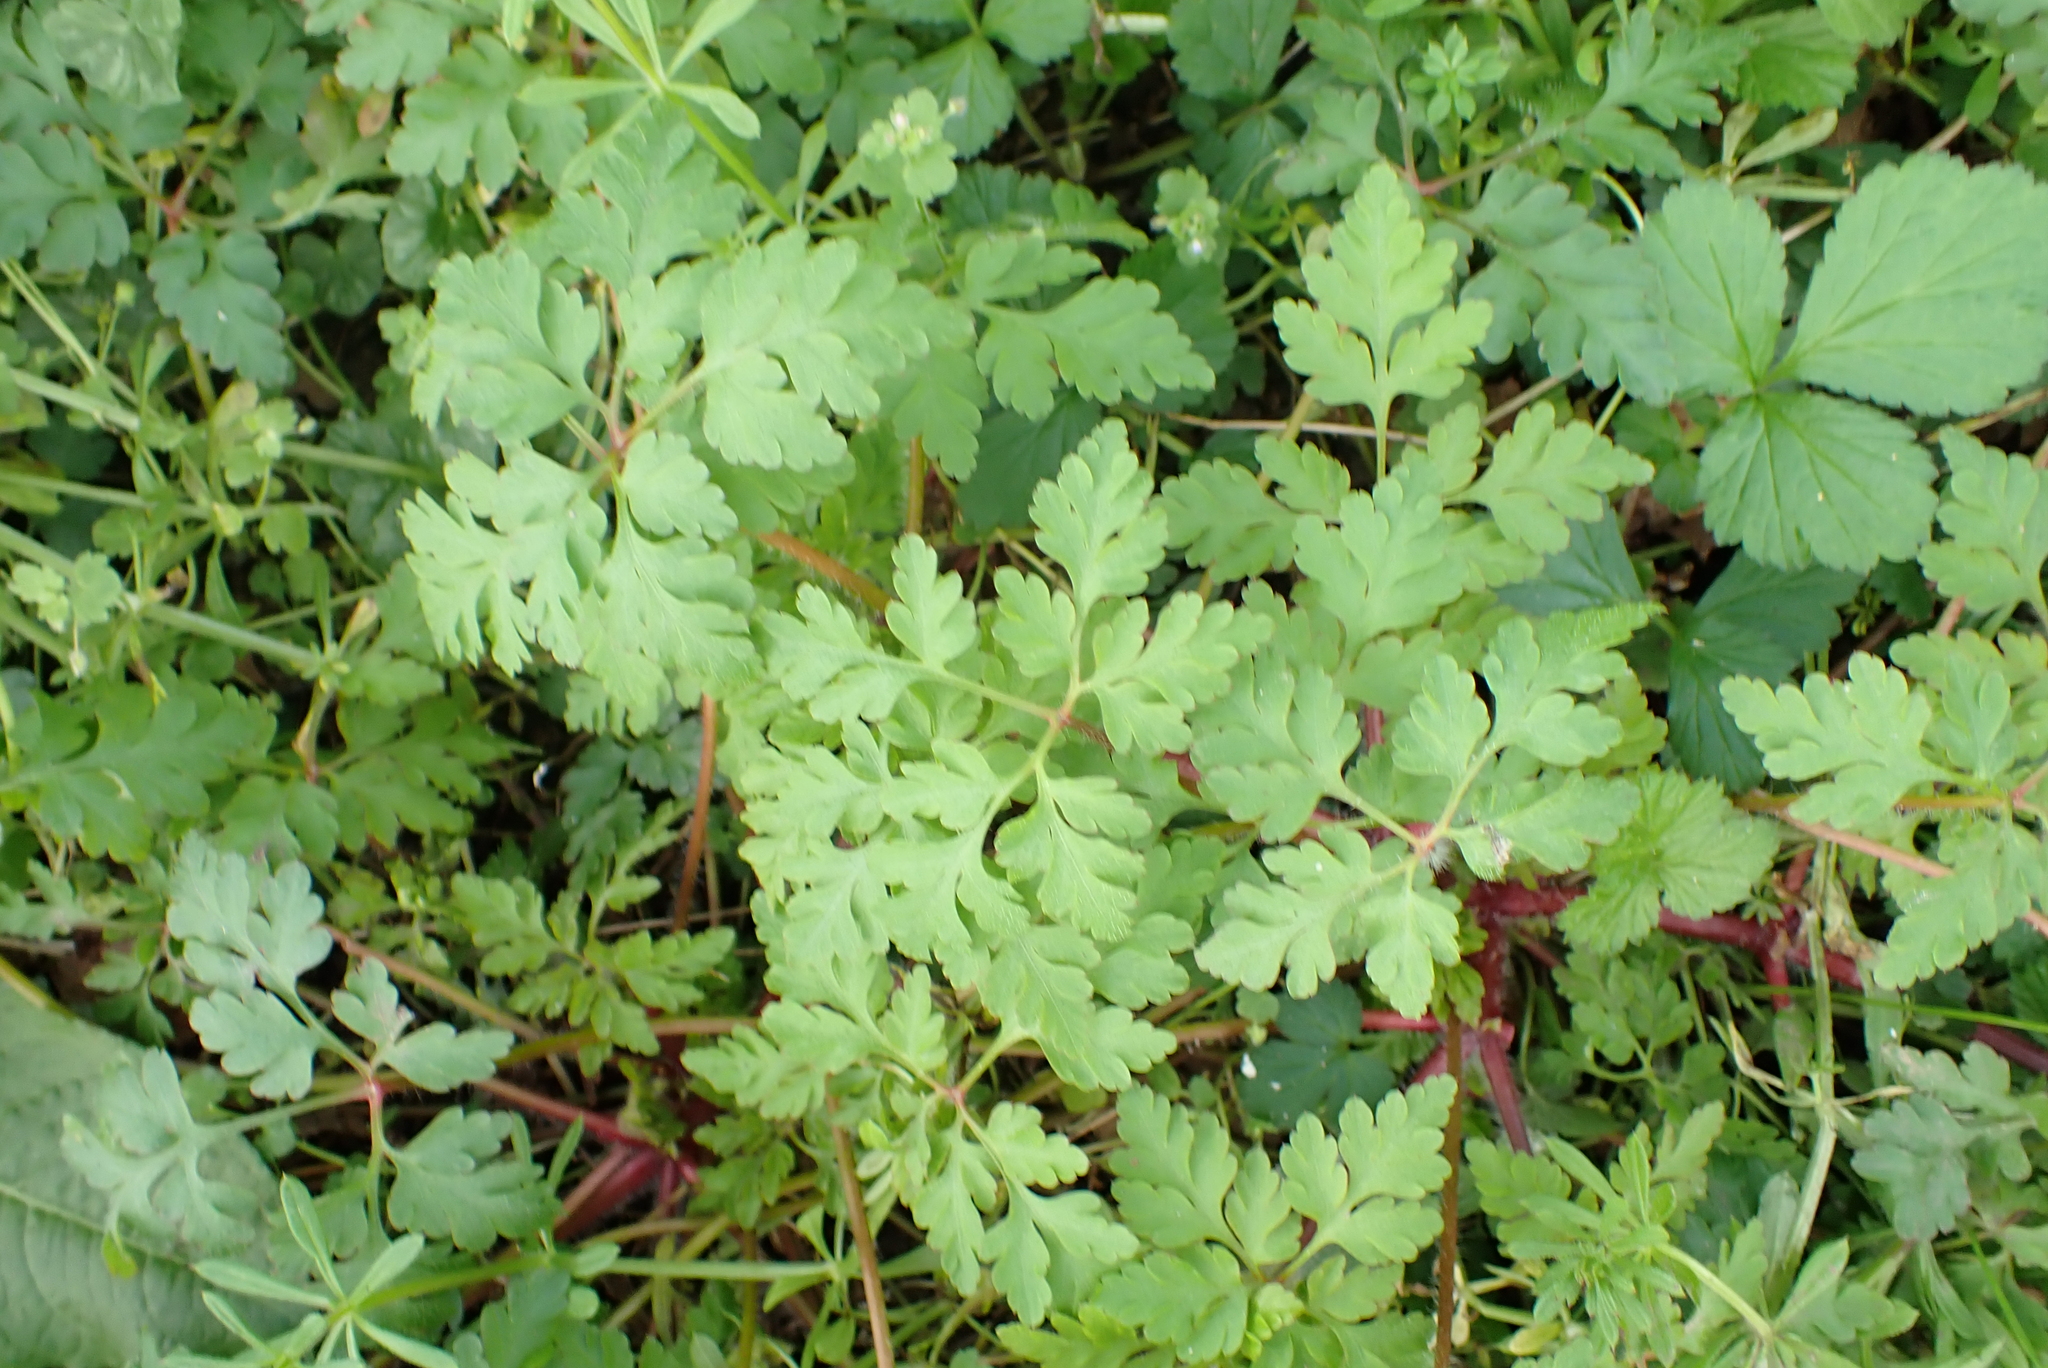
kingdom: Plantae
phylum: Tracheophyta
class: Magnoliopsida
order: Geraniales
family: Geraniaceae
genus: Geranium
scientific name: Geranium robertianum
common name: Herb-robert
